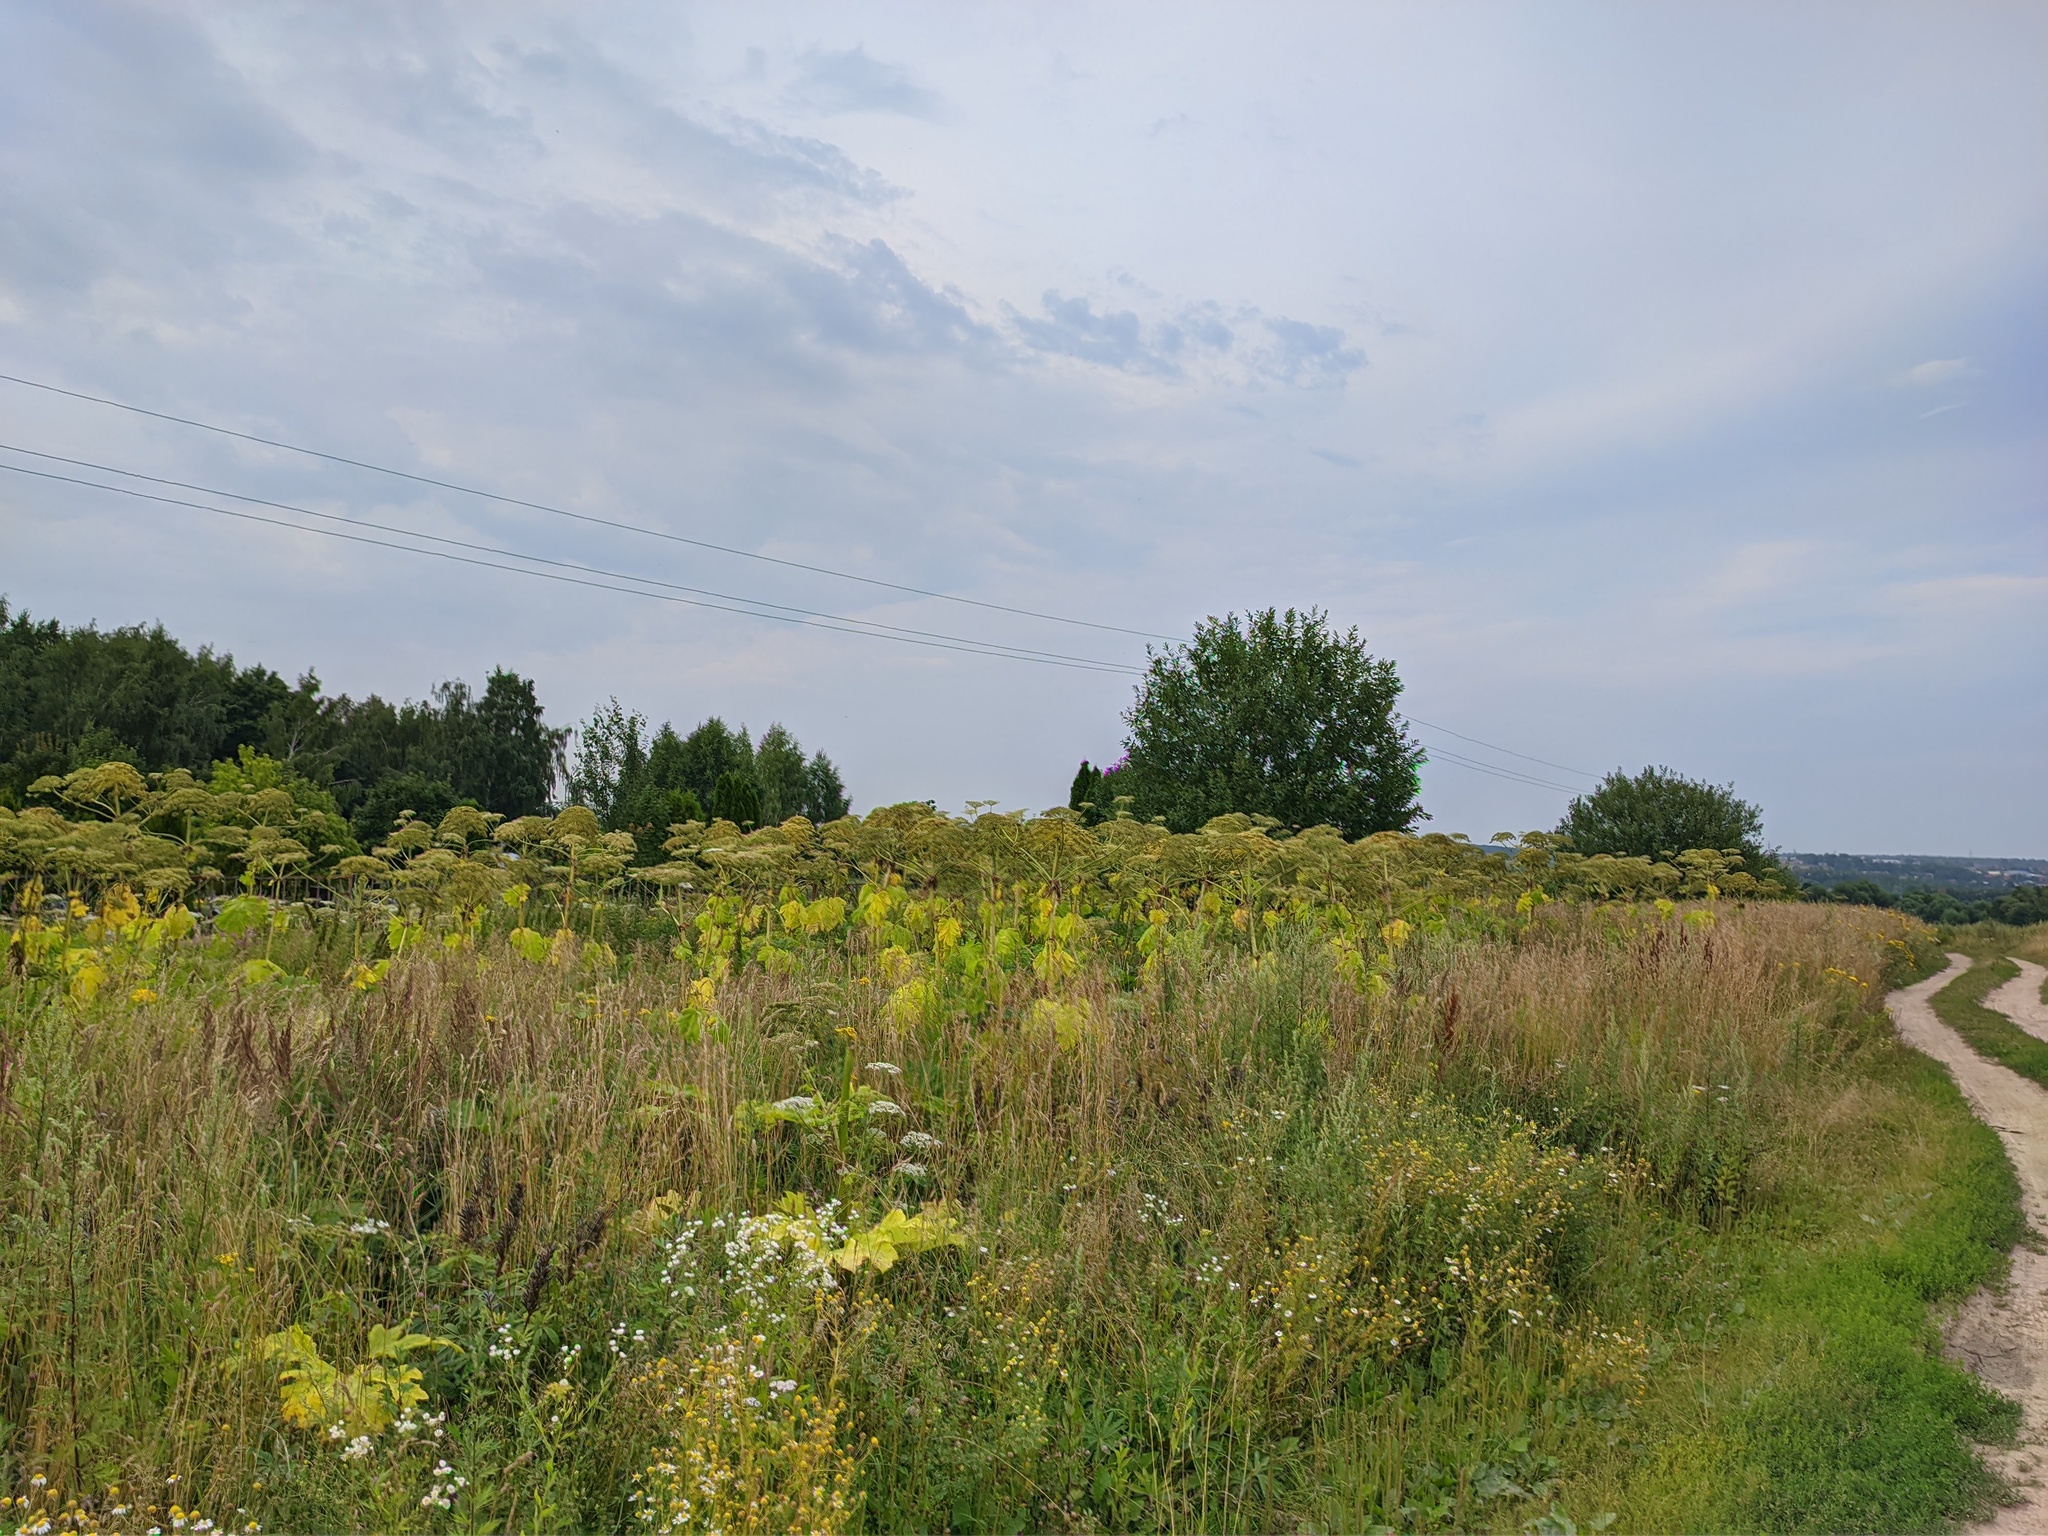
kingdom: Plantae
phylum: Tracheophyta
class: Magnoliopsida
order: Apiales
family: Apiaceae
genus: Heracleum
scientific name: Heracleum sosnowskyi
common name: Sosnowsky's hogweed
